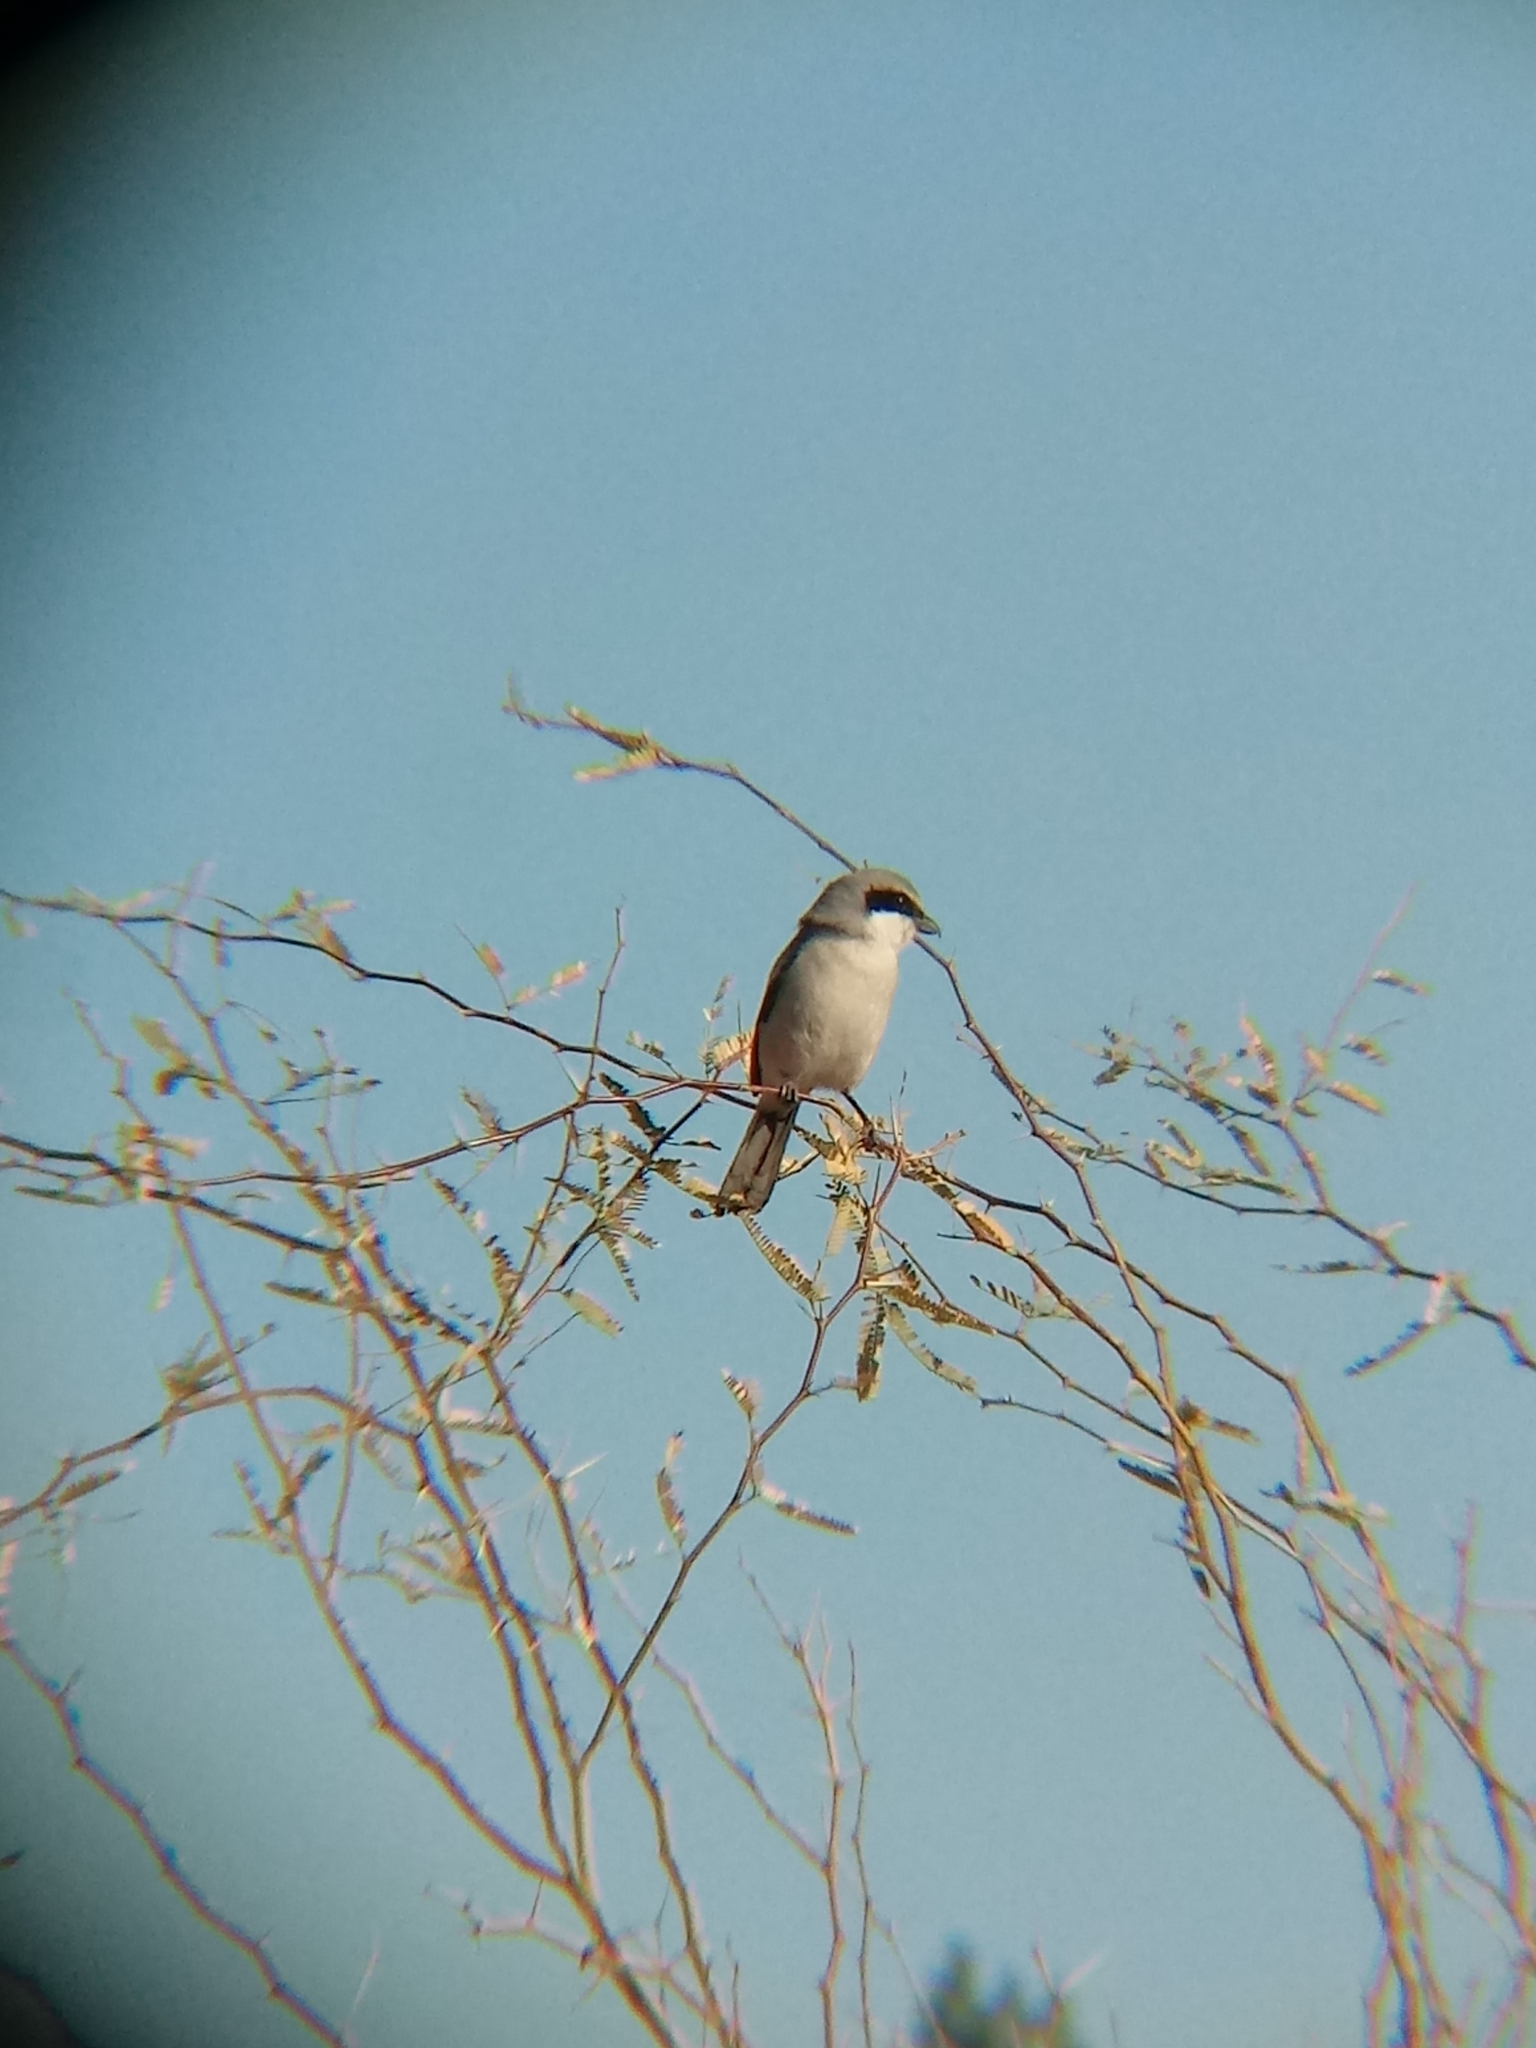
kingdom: Animalia
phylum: Chordata
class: Aves
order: Passeriformes
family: Laniidae
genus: Lanius
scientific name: Lanius ludovicianus
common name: Loggerhead shrike
